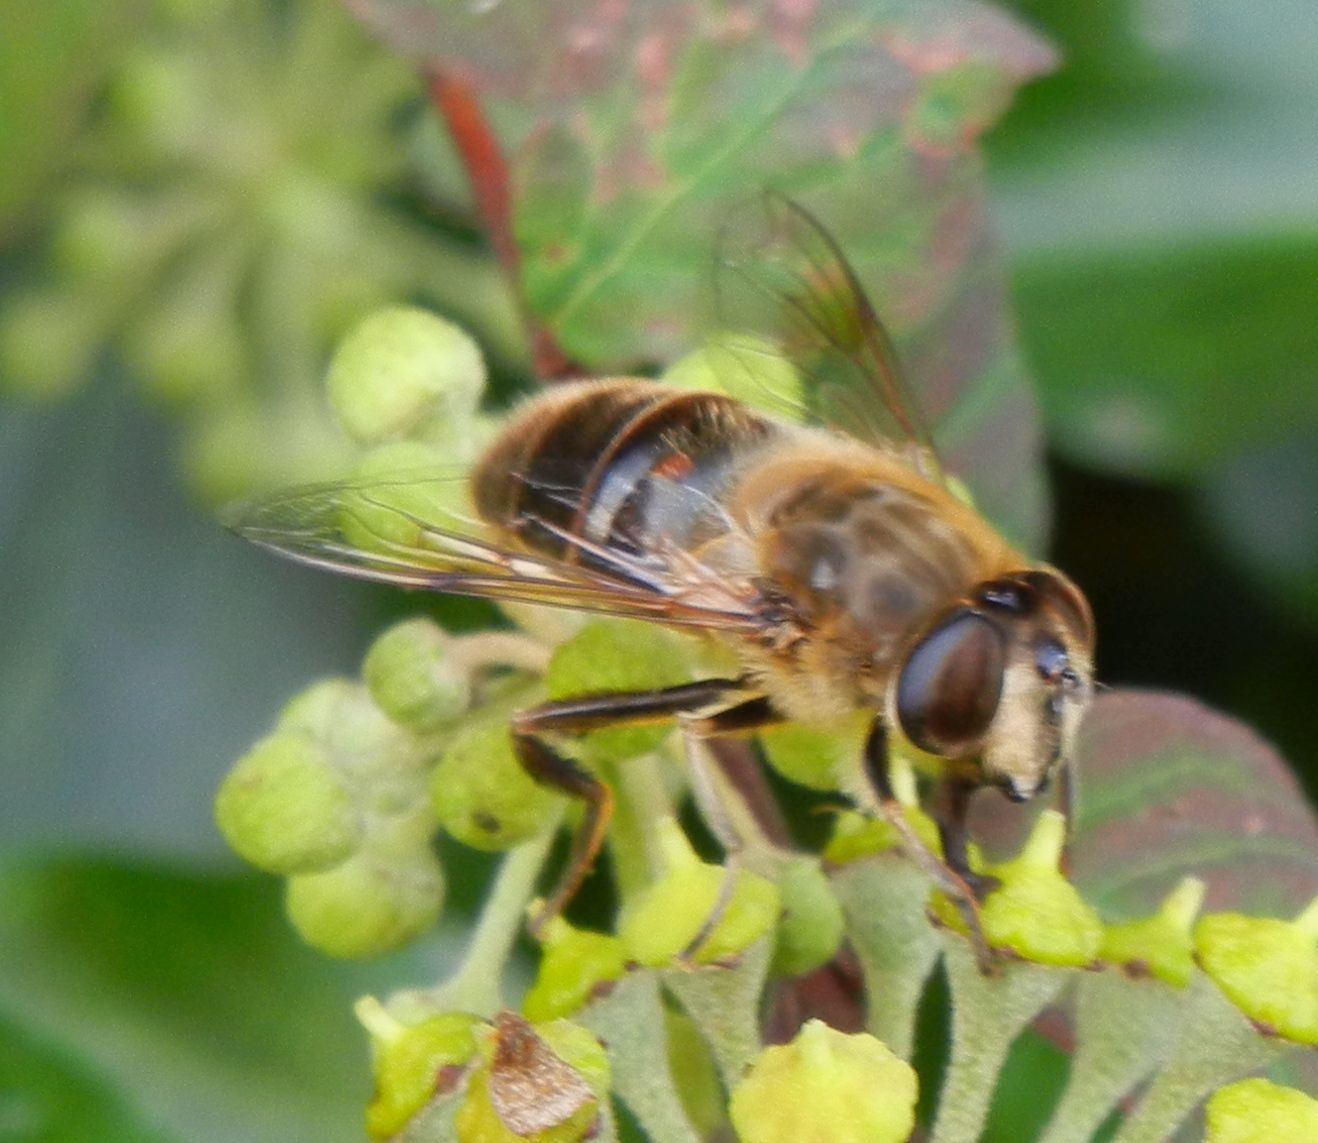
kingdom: Animalia
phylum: Arthropoda
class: Insecta
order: Diptera
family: Syrphidae
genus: Eristalis
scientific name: Eristalis tenax
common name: Drone fly
